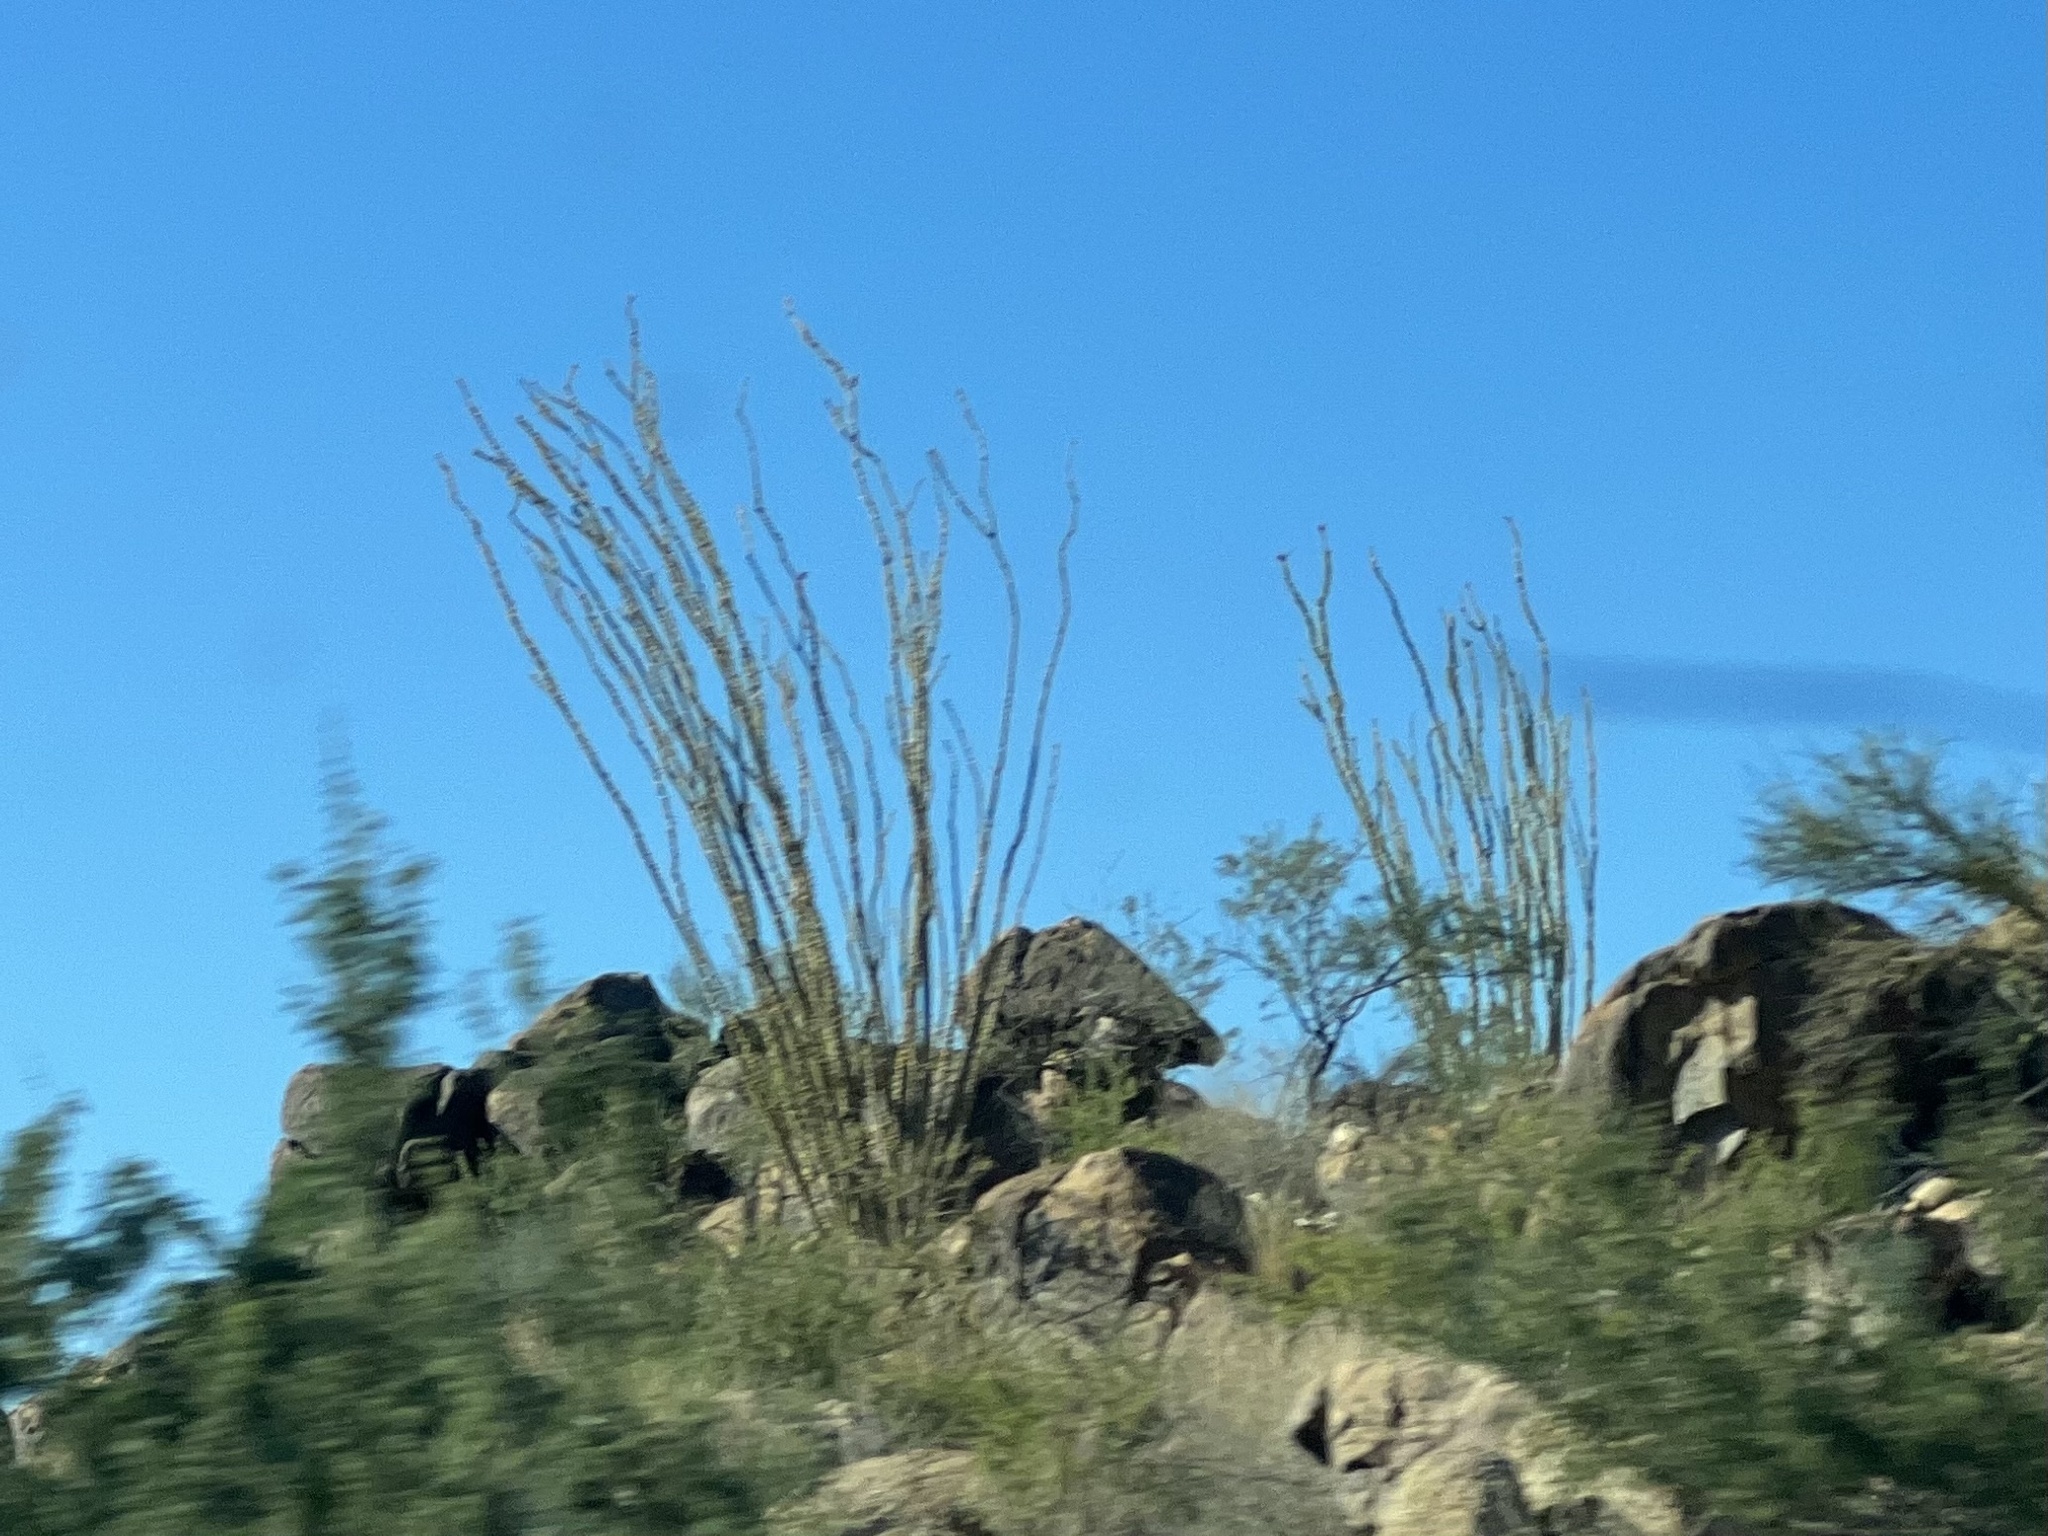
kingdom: Plantae
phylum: Tracheophyta
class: Magnoliopsida
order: Ericales
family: Fouquieriaceae
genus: Fouquieria
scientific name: Fouquieria splendens
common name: Vine-cactus
